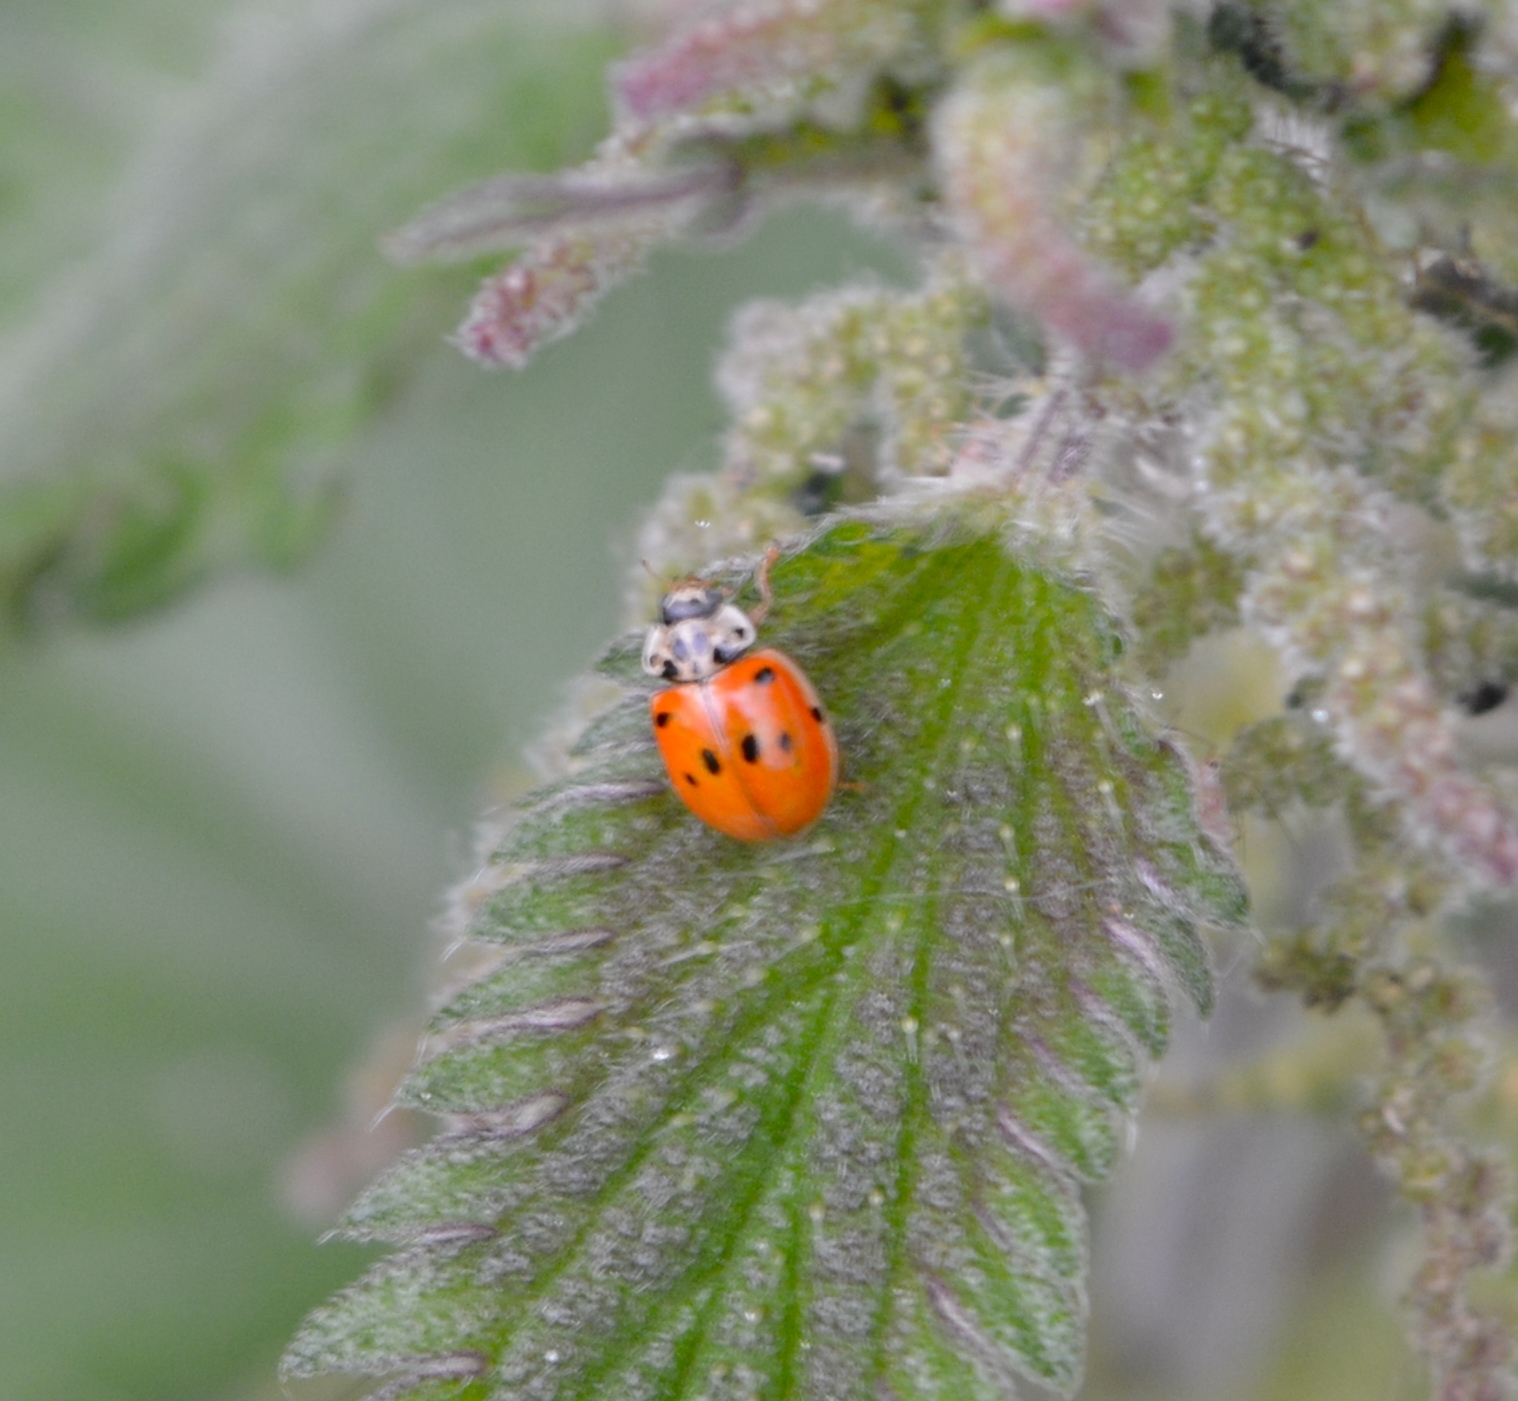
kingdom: Animalia
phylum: Arthropoda
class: Insecta
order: Coleoptera
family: Coccinellidae
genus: Adalia
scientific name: Adalia decempunctata
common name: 10-spot ladybird
